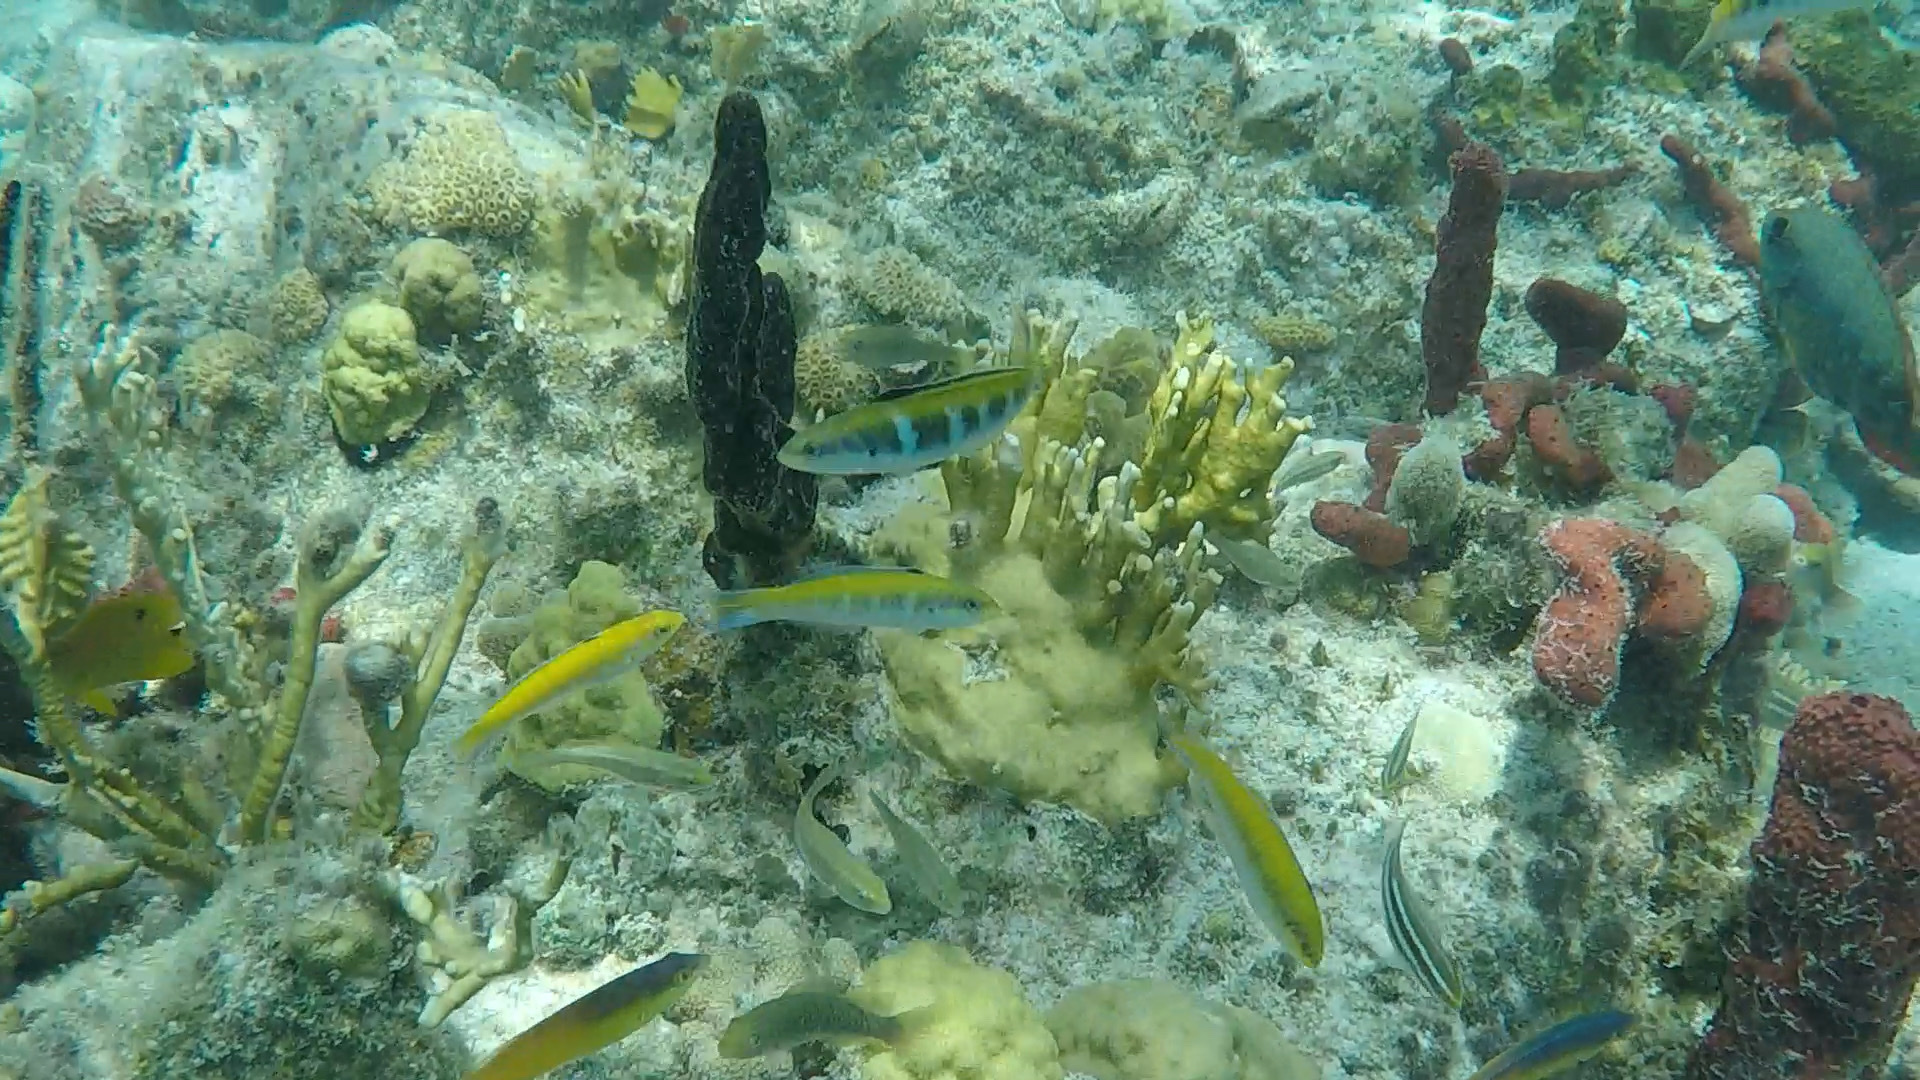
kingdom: Animalia
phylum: Chordata
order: Perciformes
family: Labridae
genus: Thalassoma
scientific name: Thalassoma bifasciatum
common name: Bluehead wrasse
